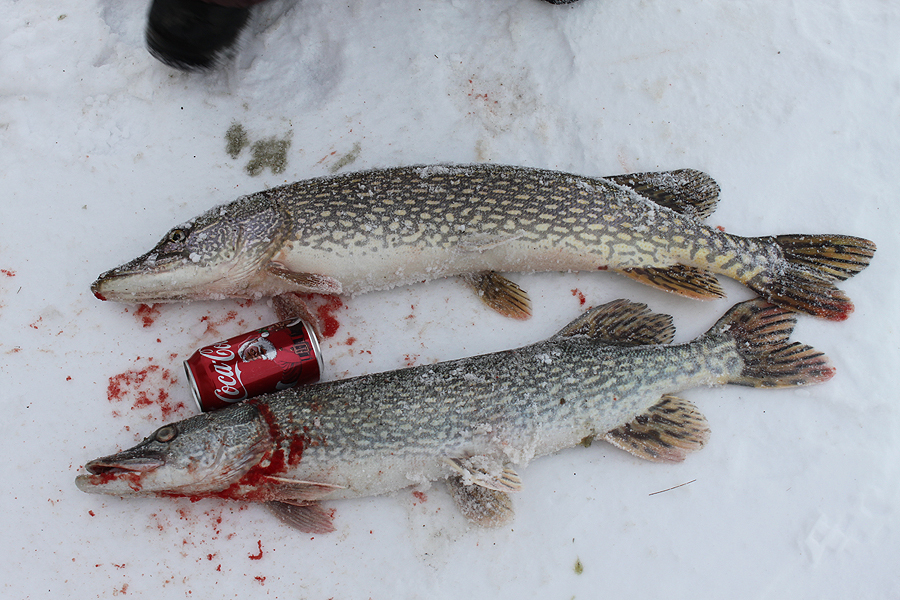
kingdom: Animalia
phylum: Chordata
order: Esociformes
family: Esocidae
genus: Esox
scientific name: Esox lucius
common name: Northern pike
